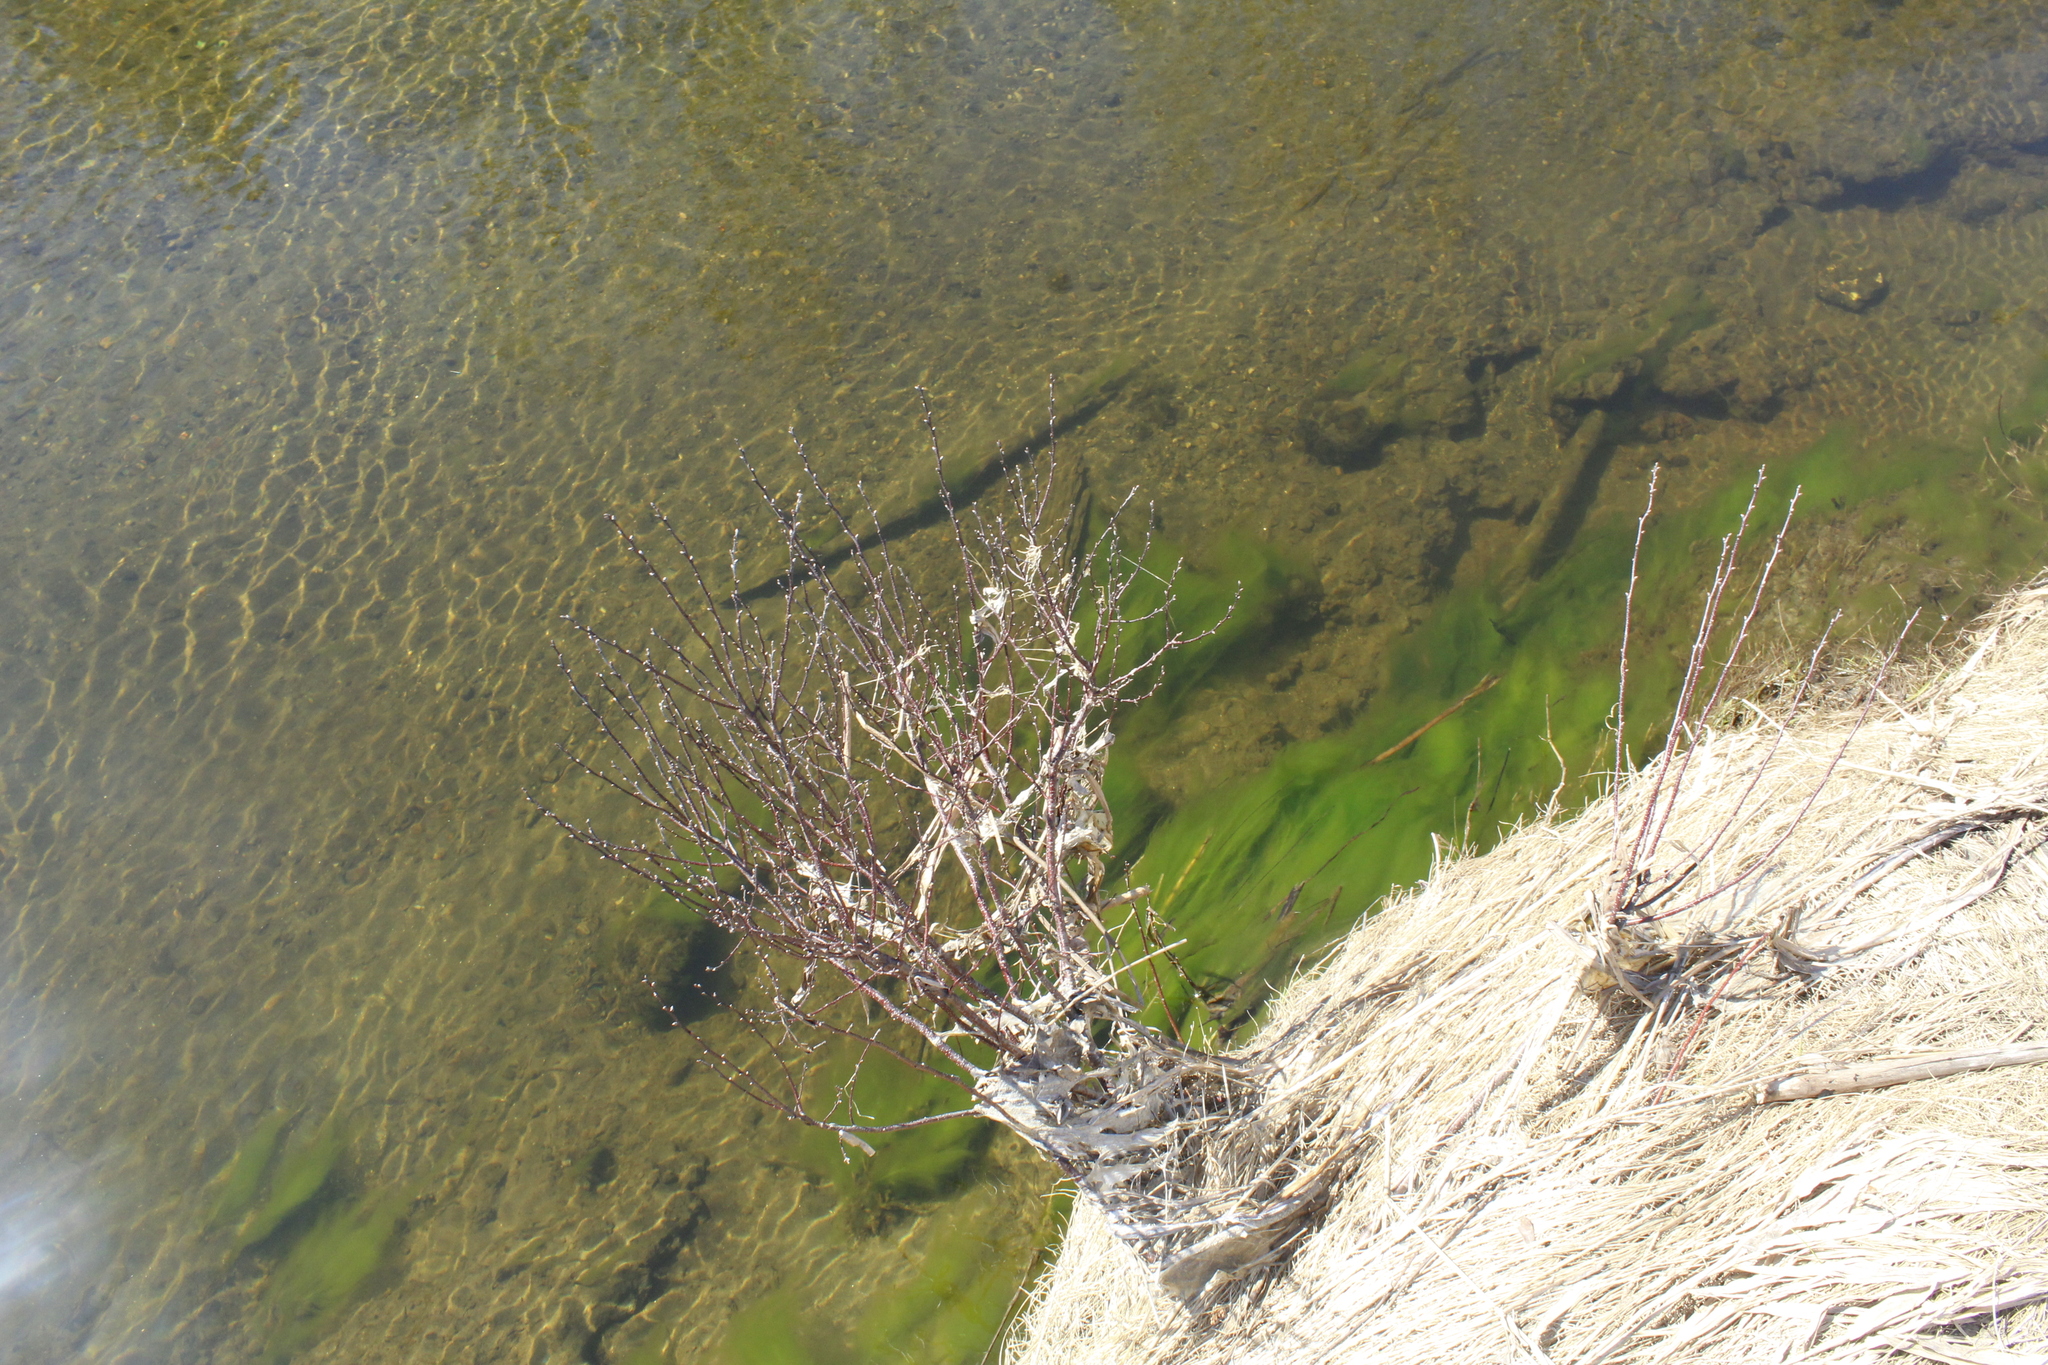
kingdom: Plantae
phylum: Tracheophyta
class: Magnoliopsida
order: Fagales
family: Betulaceae
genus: Carpinus
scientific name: Carpinus caroliniana
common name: American hornbeam
